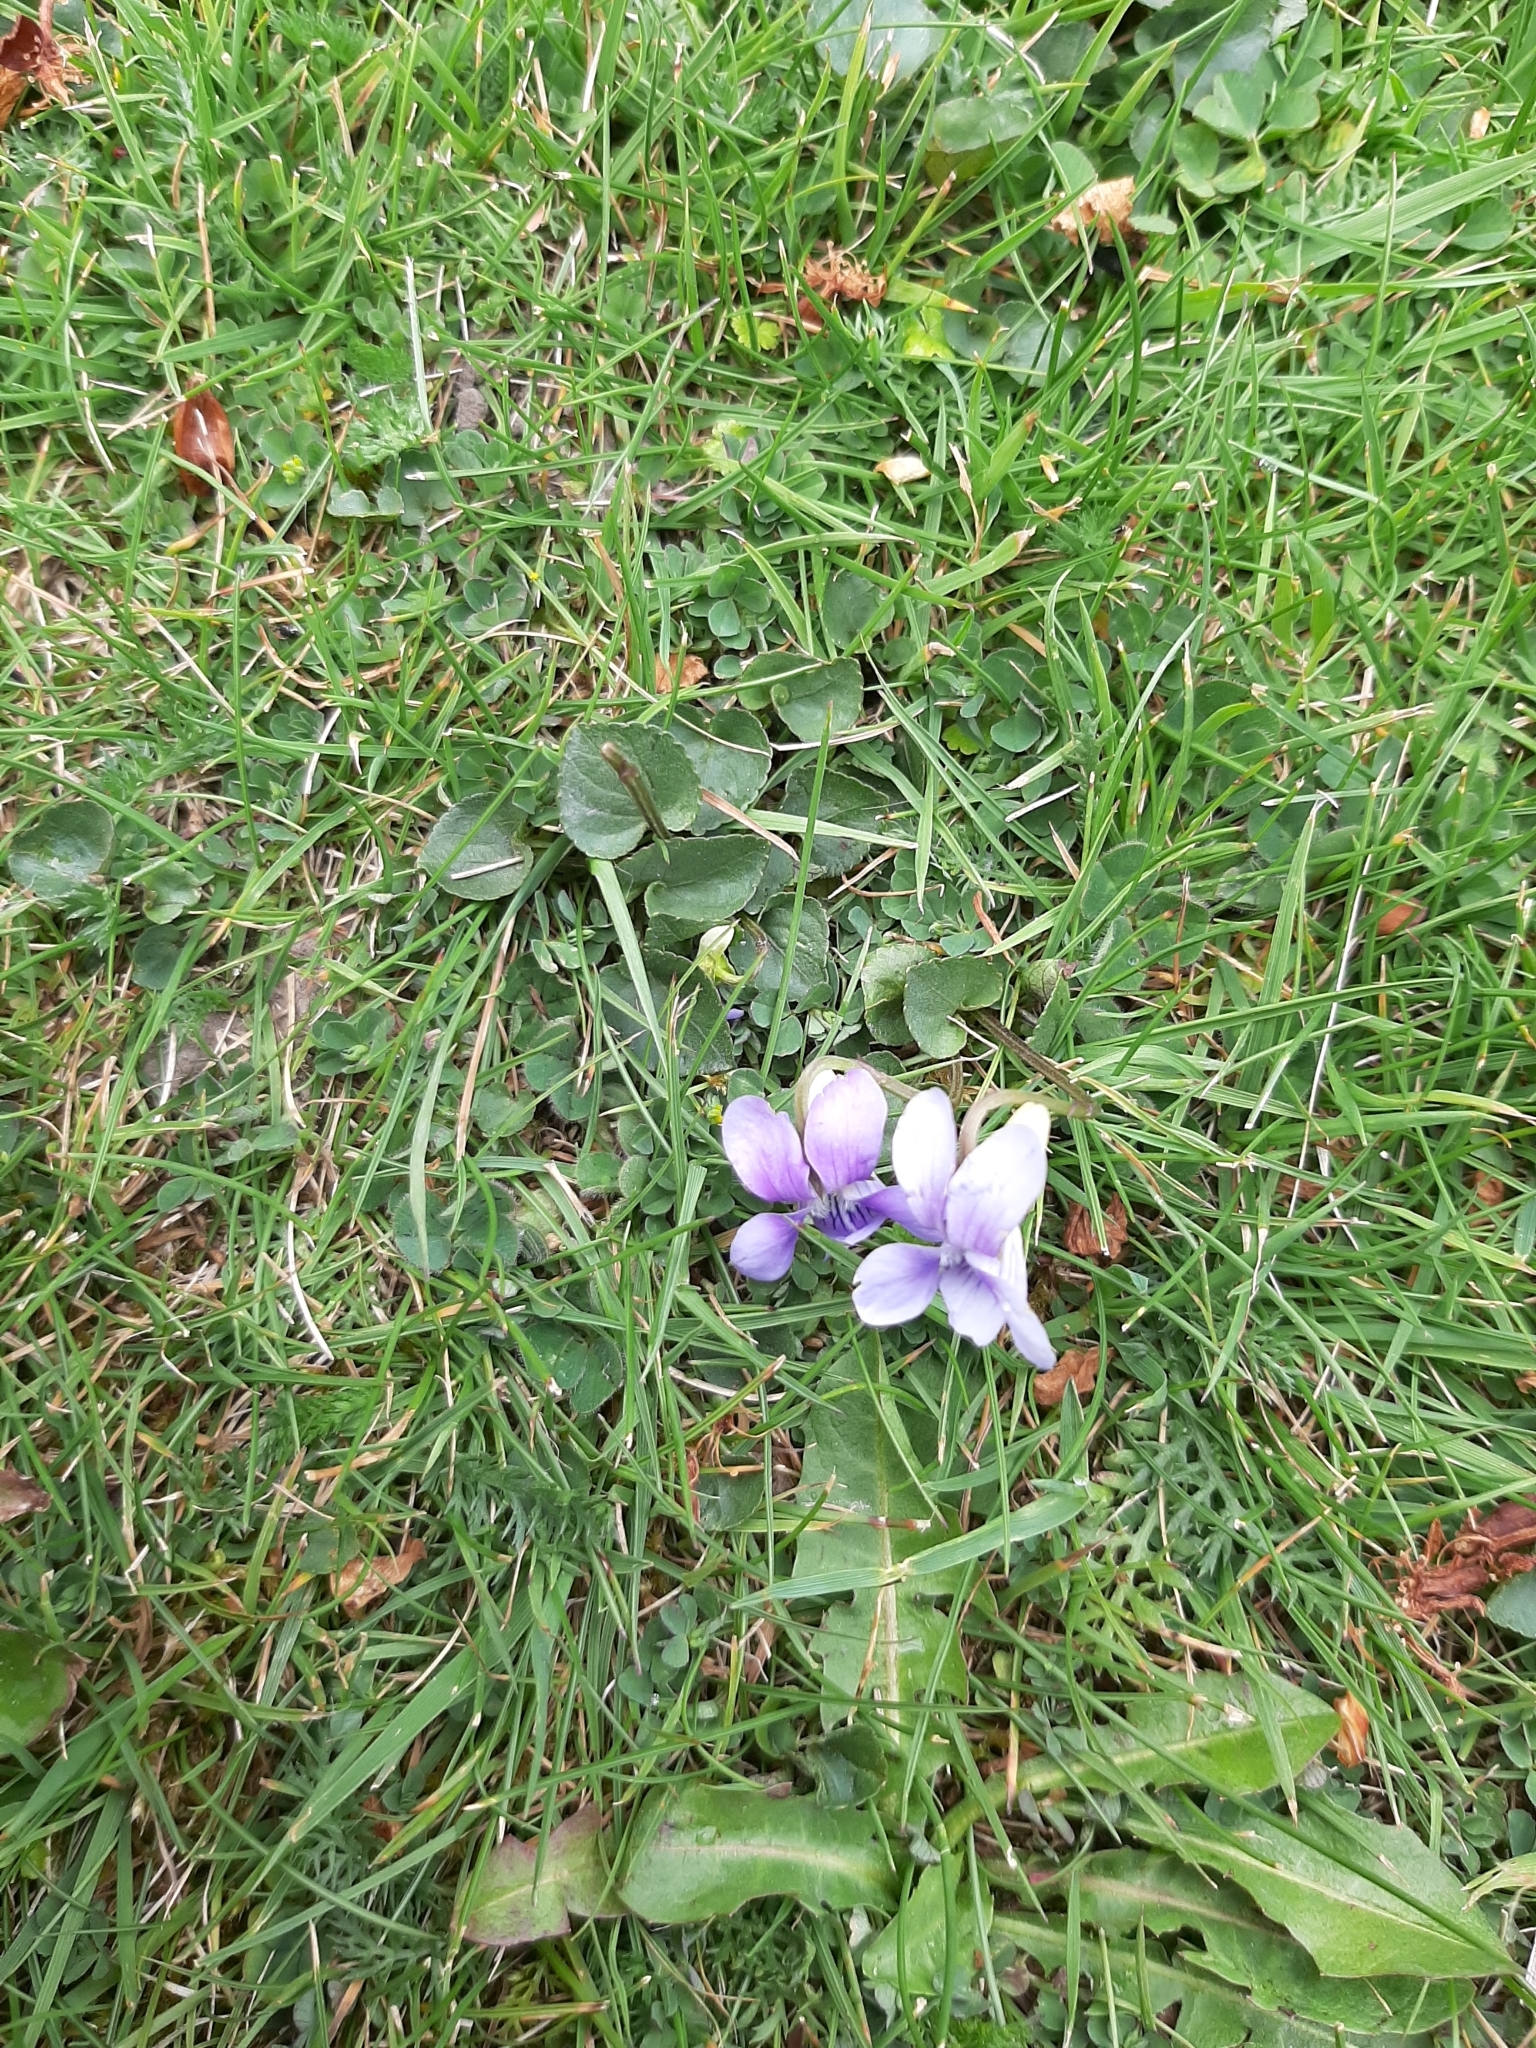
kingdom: Plantae
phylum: Tracheophyta
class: Magnoliopsida
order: Malpighiales
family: Violaceae
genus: Viola
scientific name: Viola riviniana
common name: Common dog-violet
